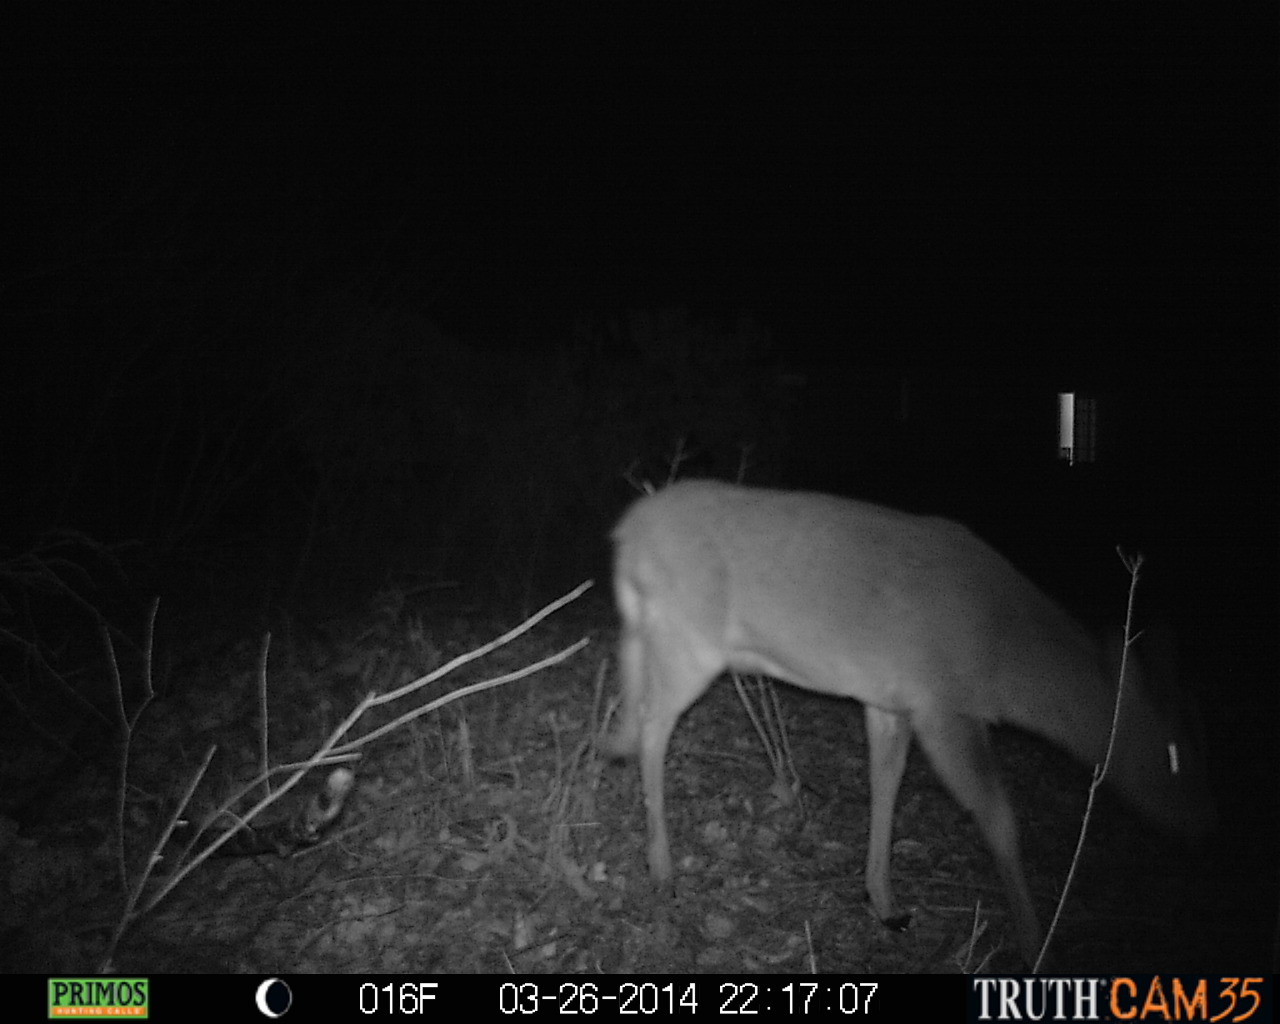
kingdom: Animalia
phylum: Chordata
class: Mammalia
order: Artiodactyla
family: Cervidae
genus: Odocoileus
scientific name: Odocoileus virginianus
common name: White-tailed deer
